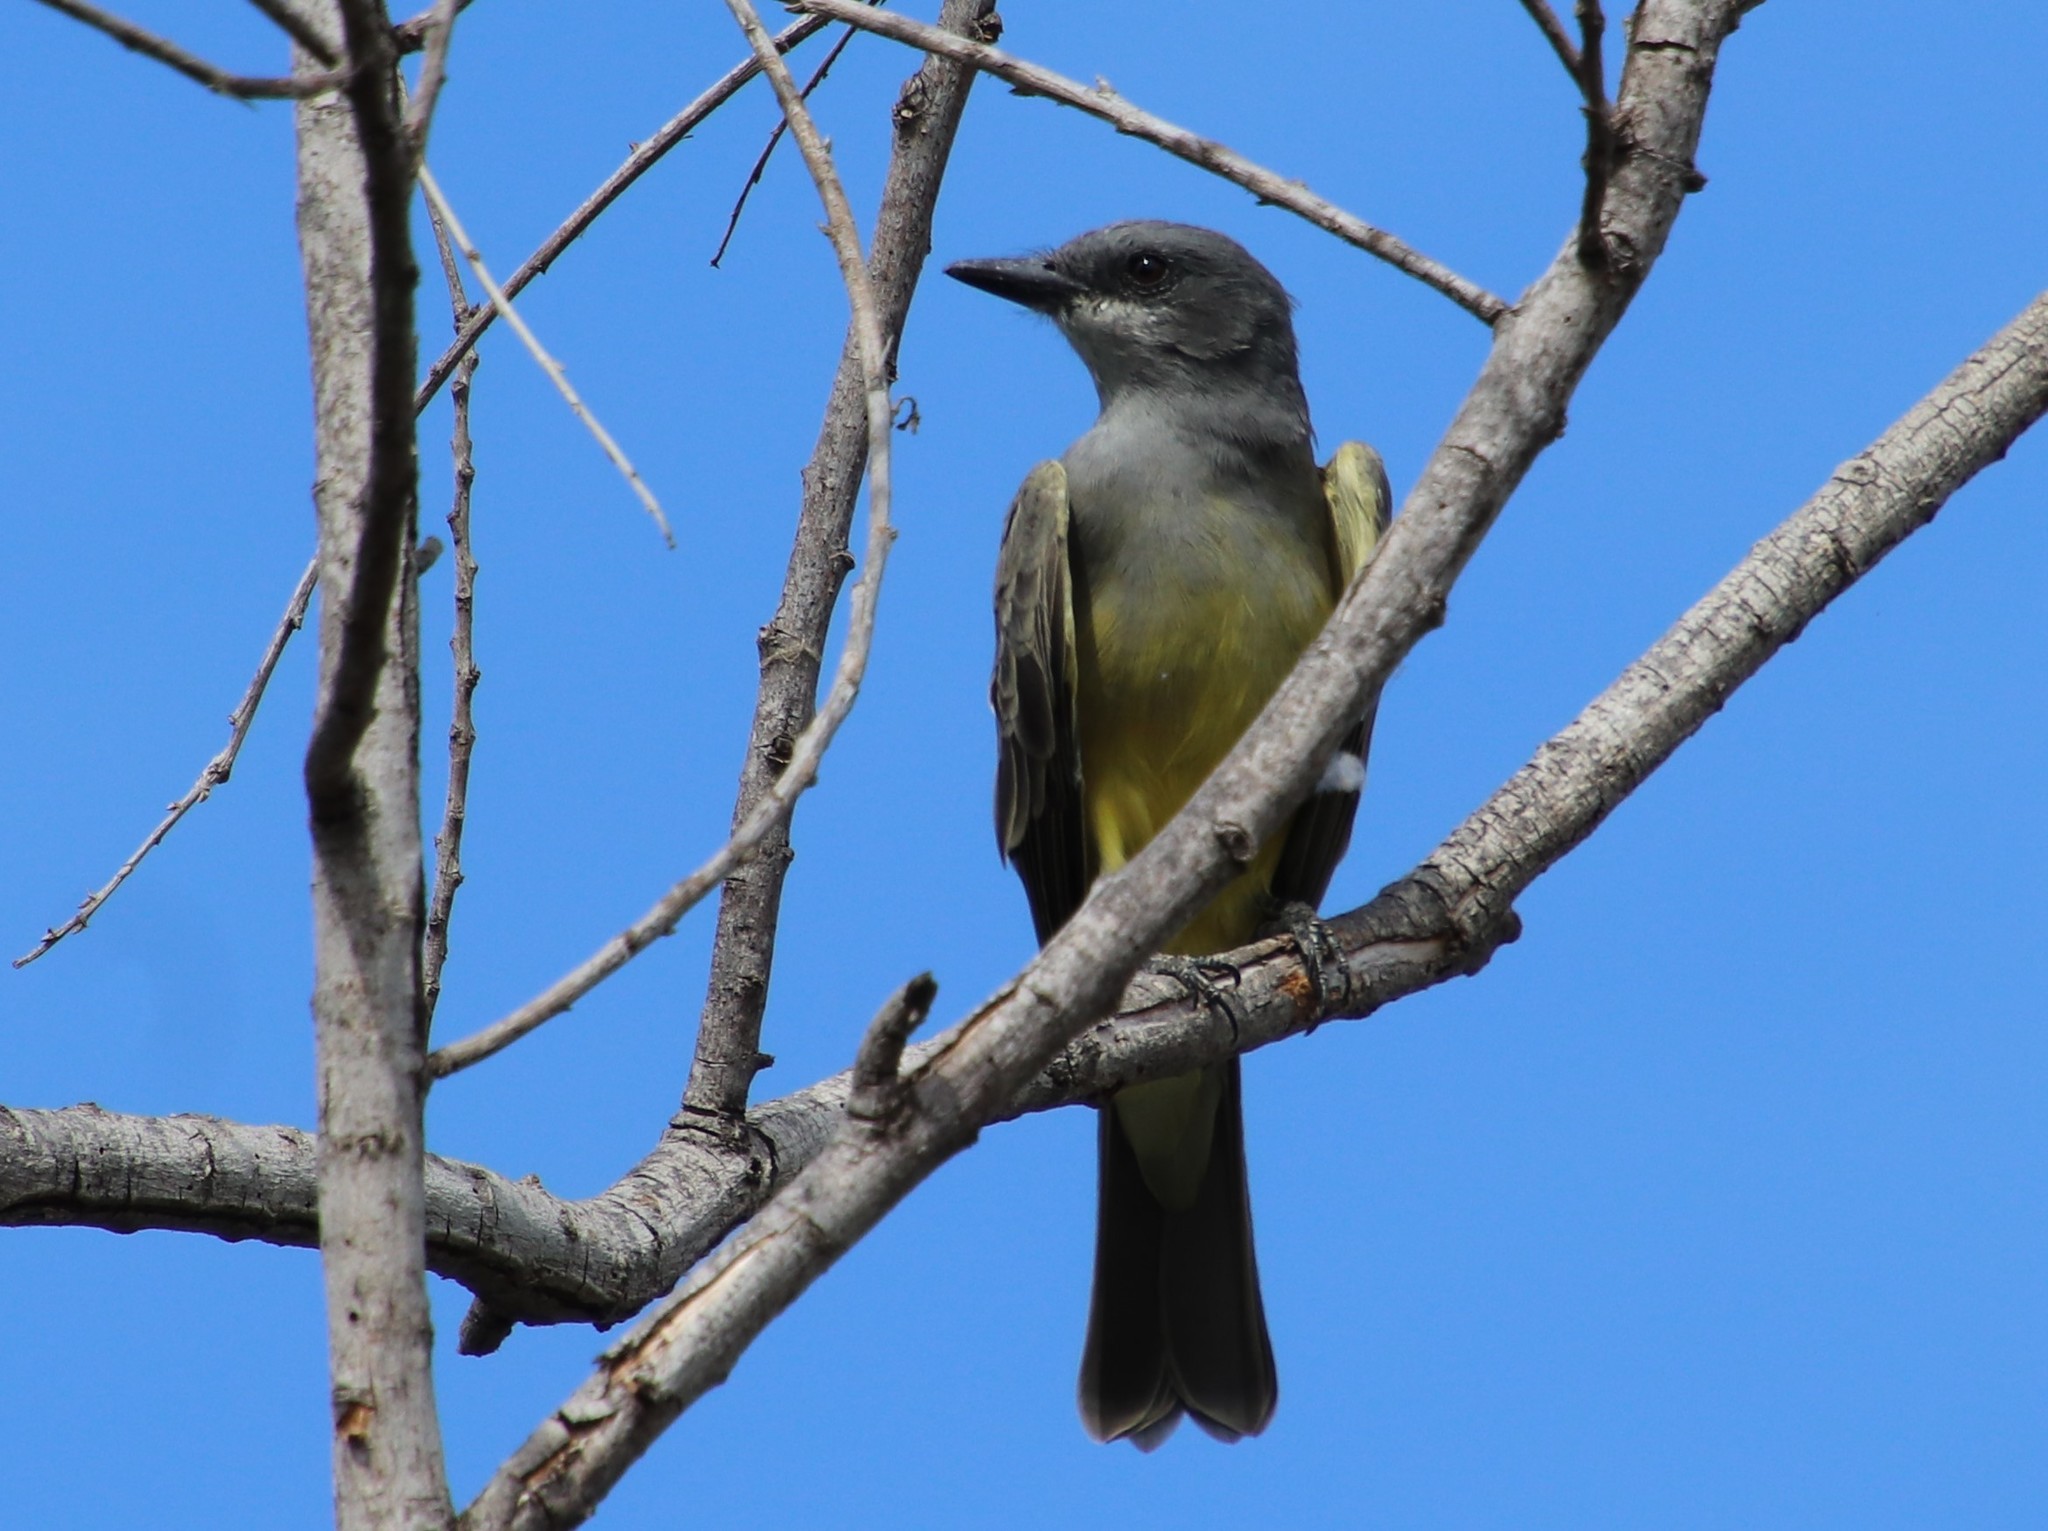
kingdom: Animalia
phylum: Chordata
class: Aves
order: Passeriformes
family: Tyrannidae
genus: Tyrannus
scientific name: Tyrannus vociferans
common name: Cassin's kingbird
